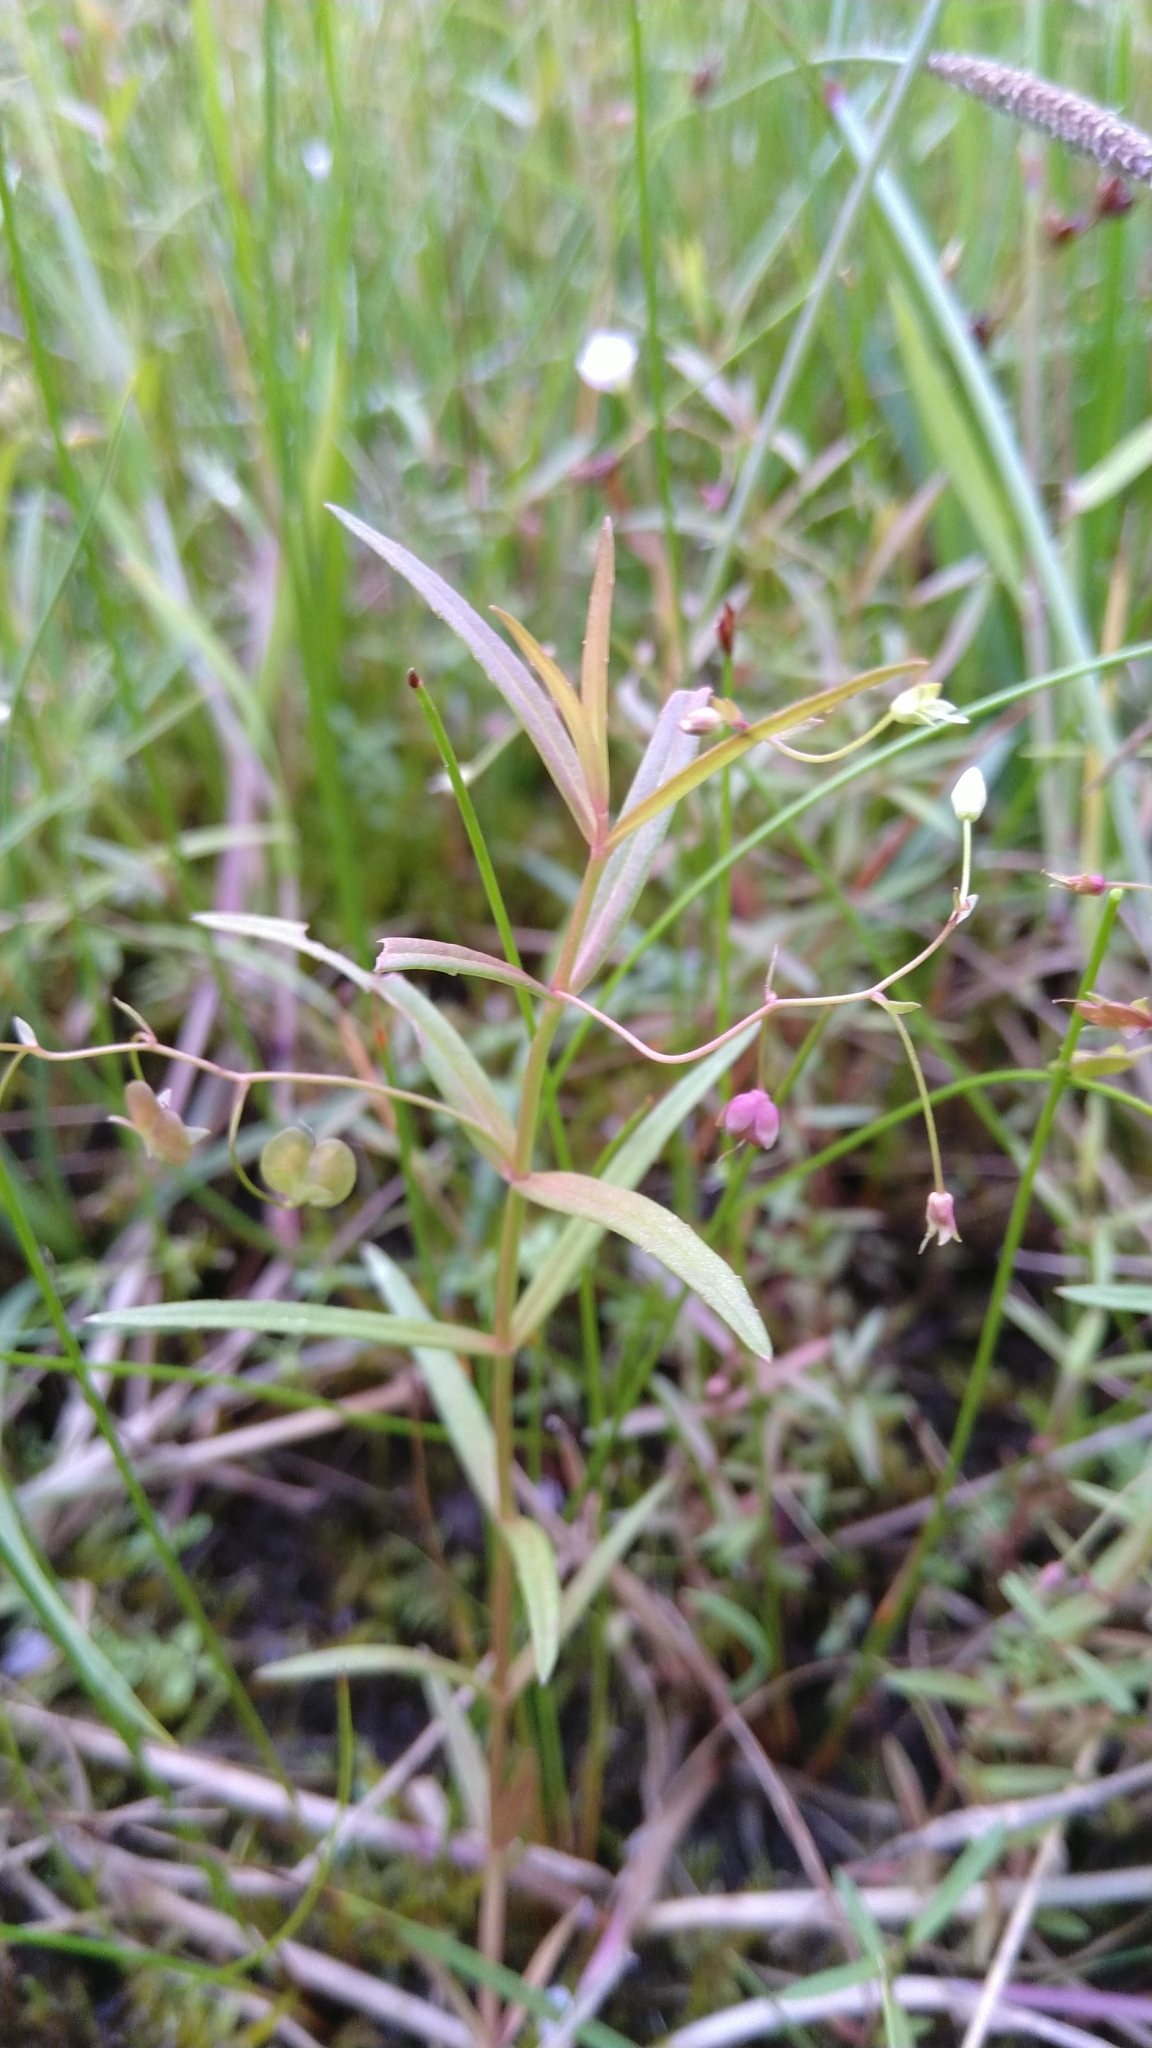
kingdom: Plantae
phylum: Tracheophyta
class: Magnoliopsida
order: Lamiales
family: Plantaginaceae
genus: Veronica
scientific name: Veronica scutellata
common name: Marsh speedwell
